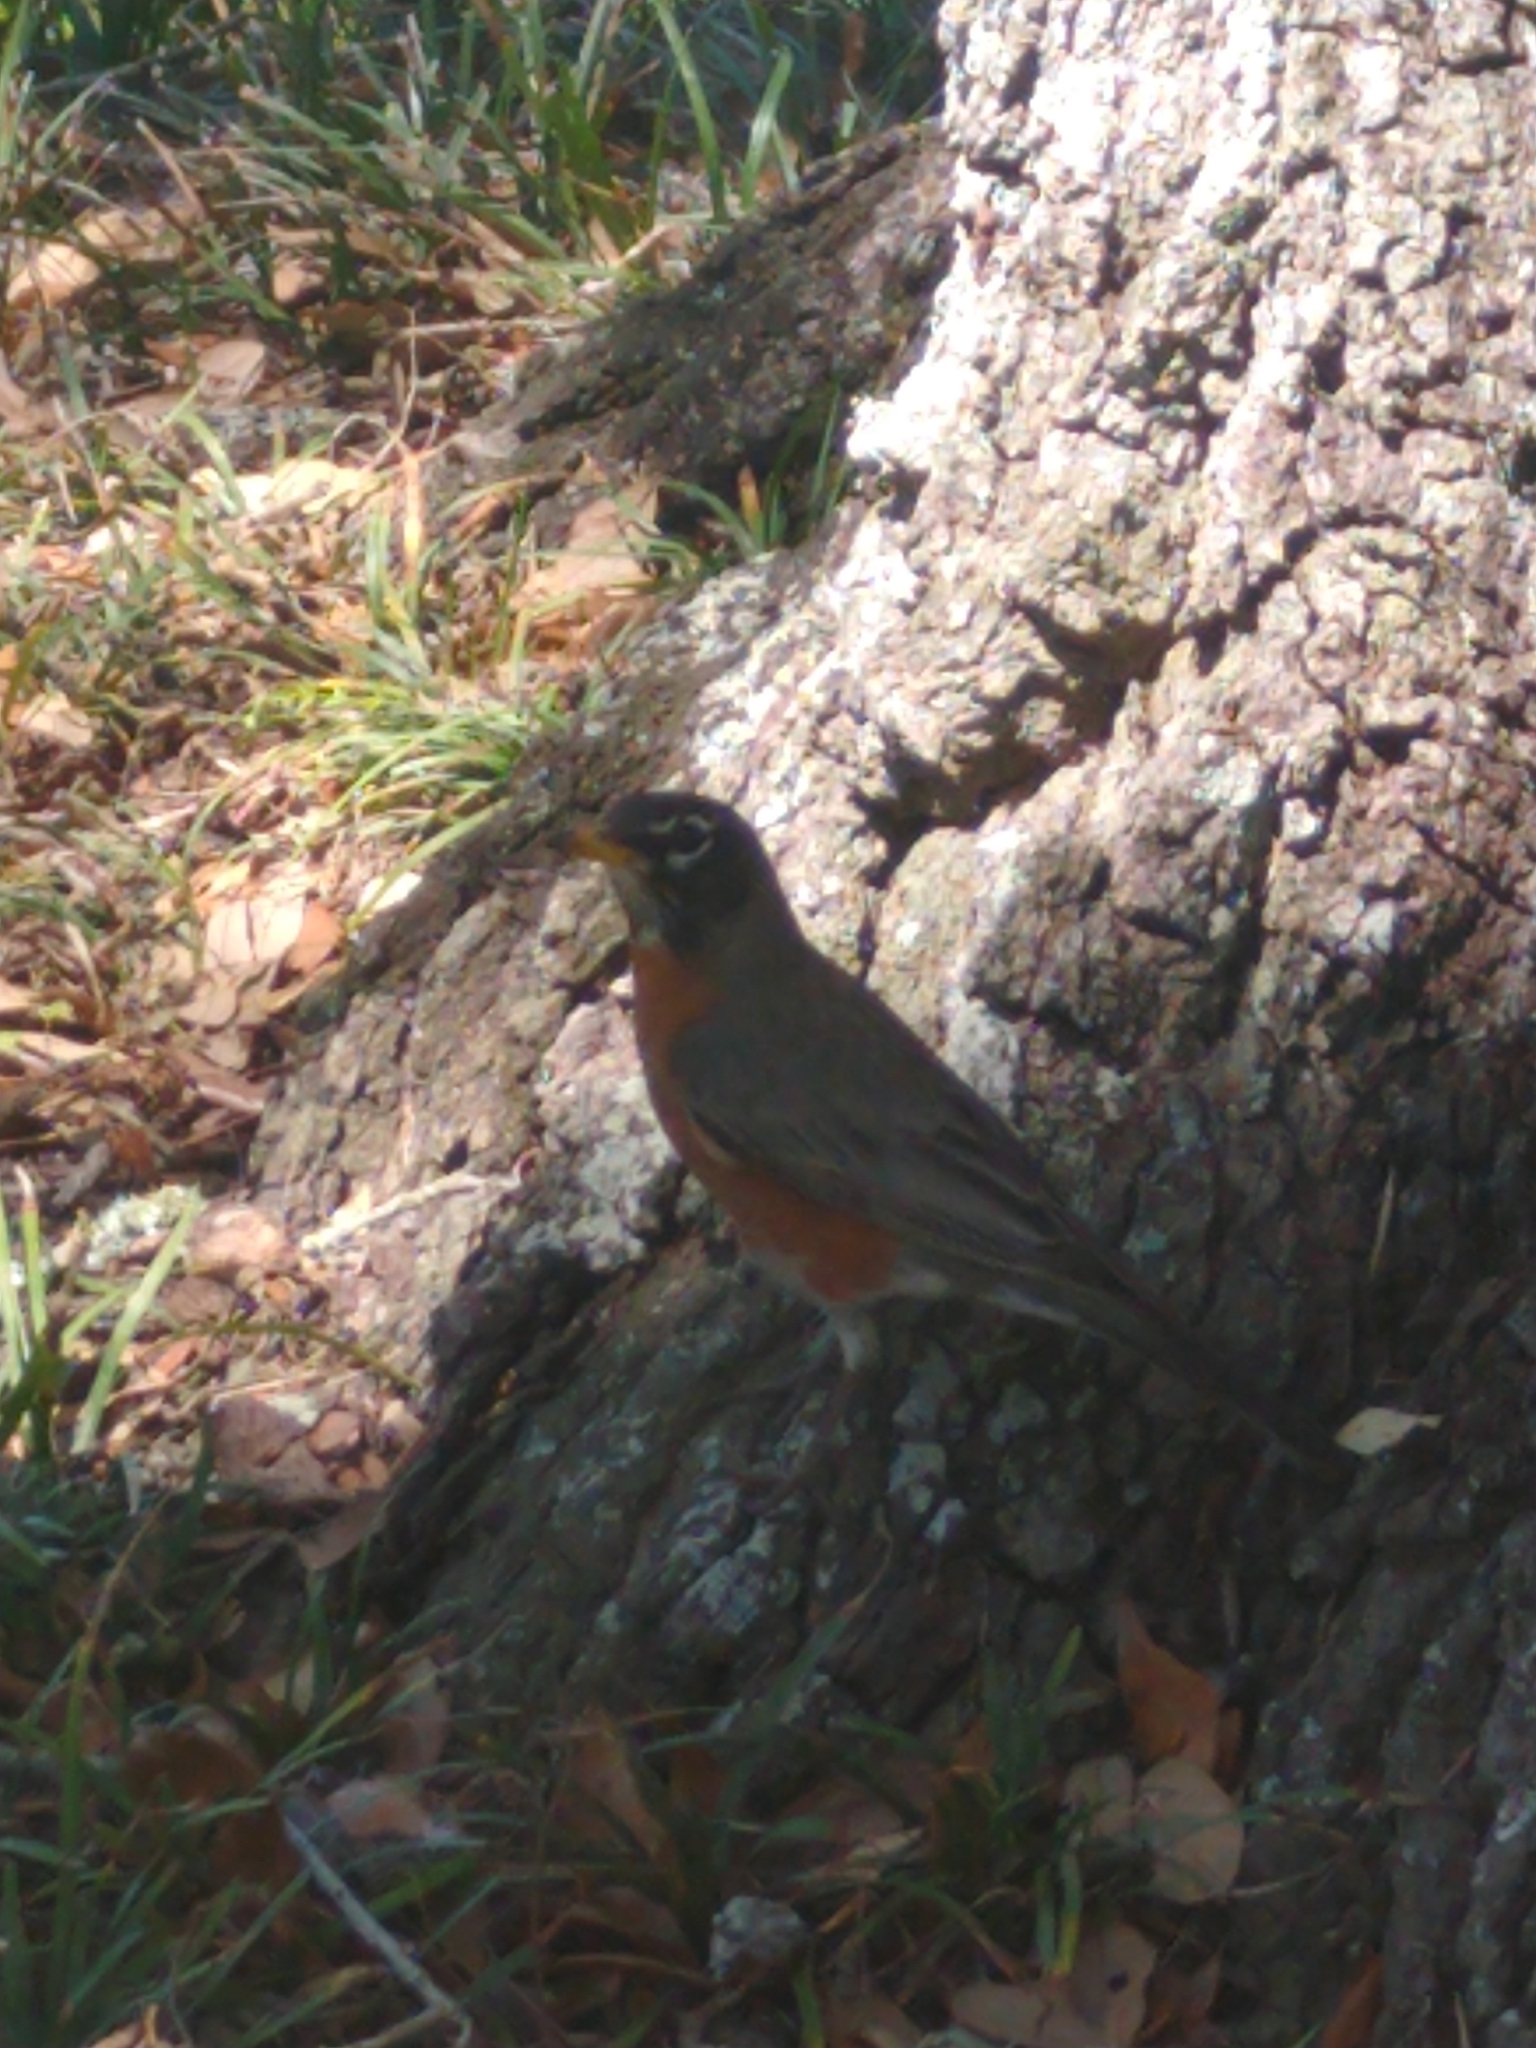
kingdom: Animalia
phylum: Chordata
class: Aves
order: Passeriformes
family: Turdidae
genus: Turdus
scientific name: Turdus migratorius
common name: American robin
